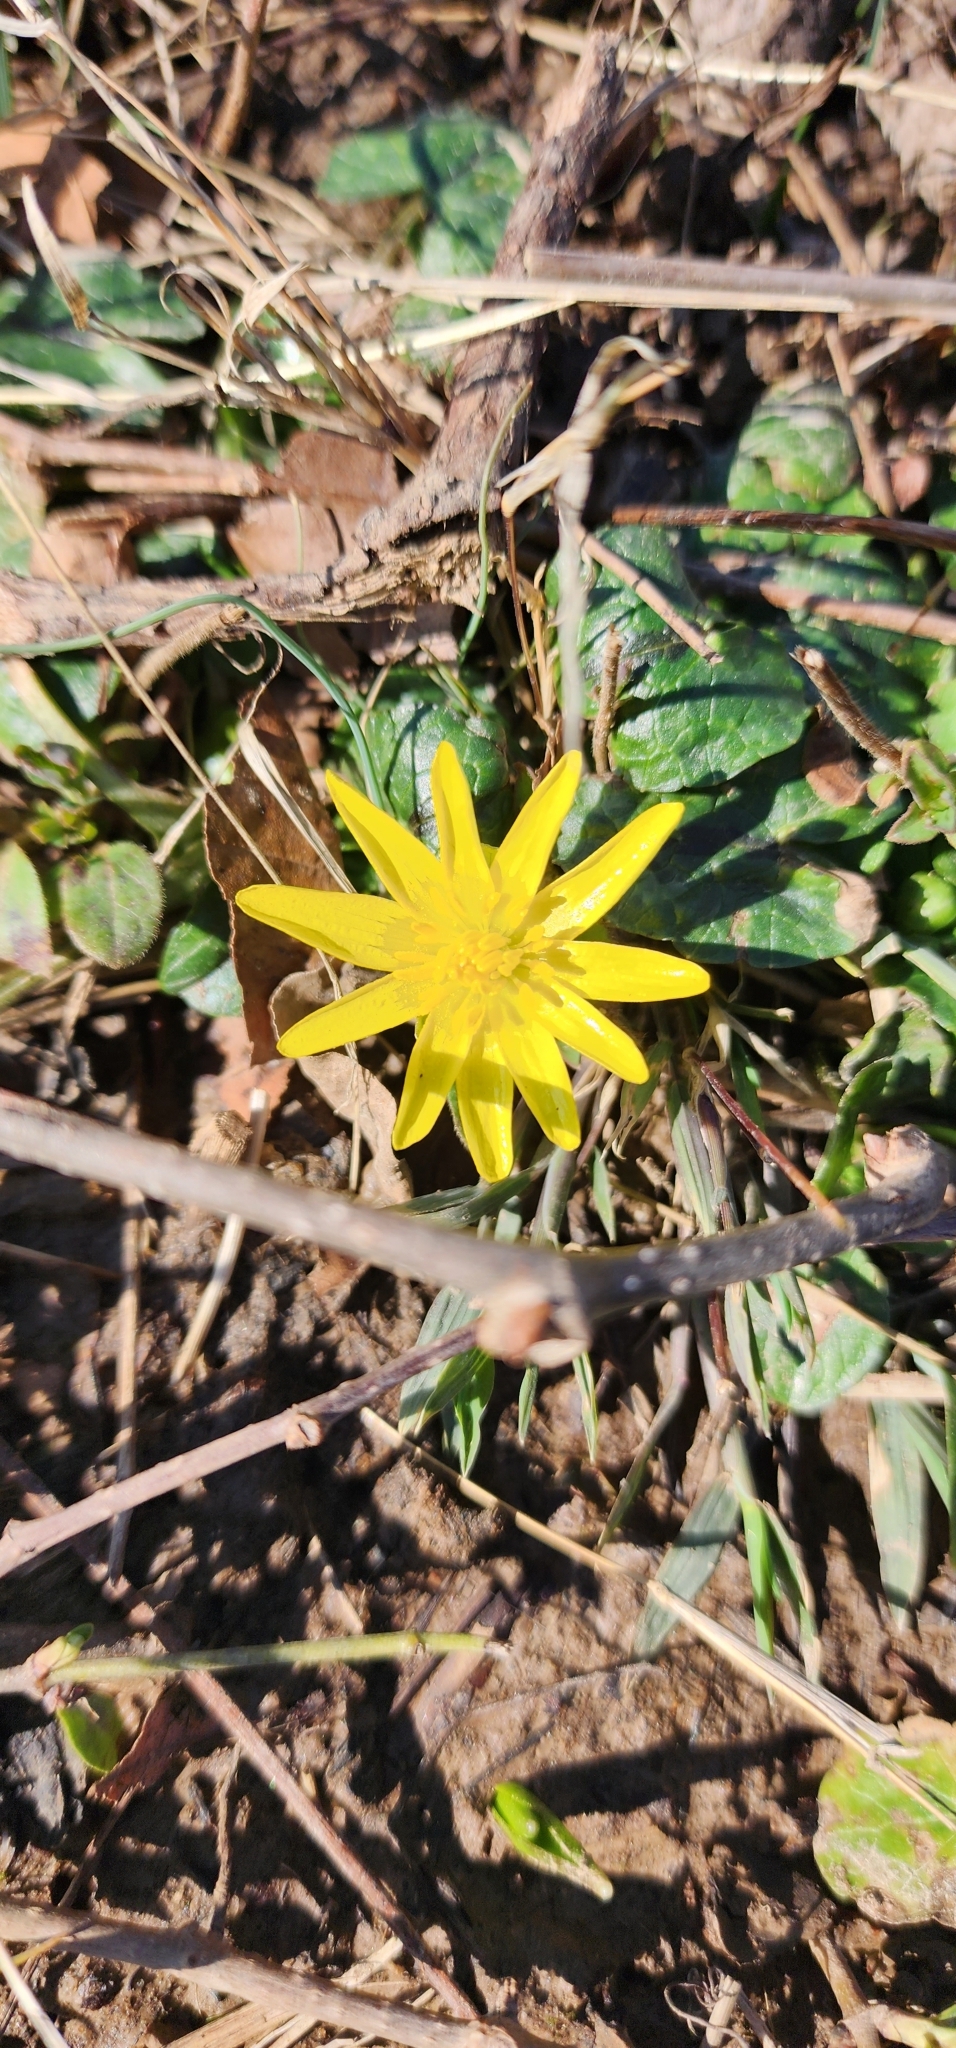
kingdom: Plantae
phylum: Tracheophyta
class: Magnoliopsida
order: Ranunculales
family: Ranunculaceae
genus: Ficaria
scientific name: Ficaria verna
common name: Lesser celandine
